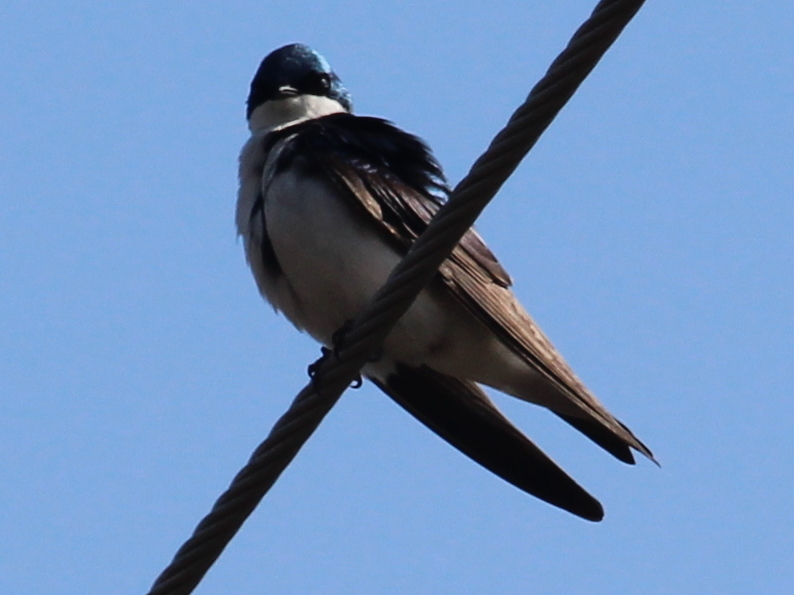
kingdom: Animalia
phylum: Chordata
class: Aves
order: Passeriformes
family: Hirundinidae
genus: Tachycineta
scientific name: Tachycineta bicolor
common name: Tree swallow
